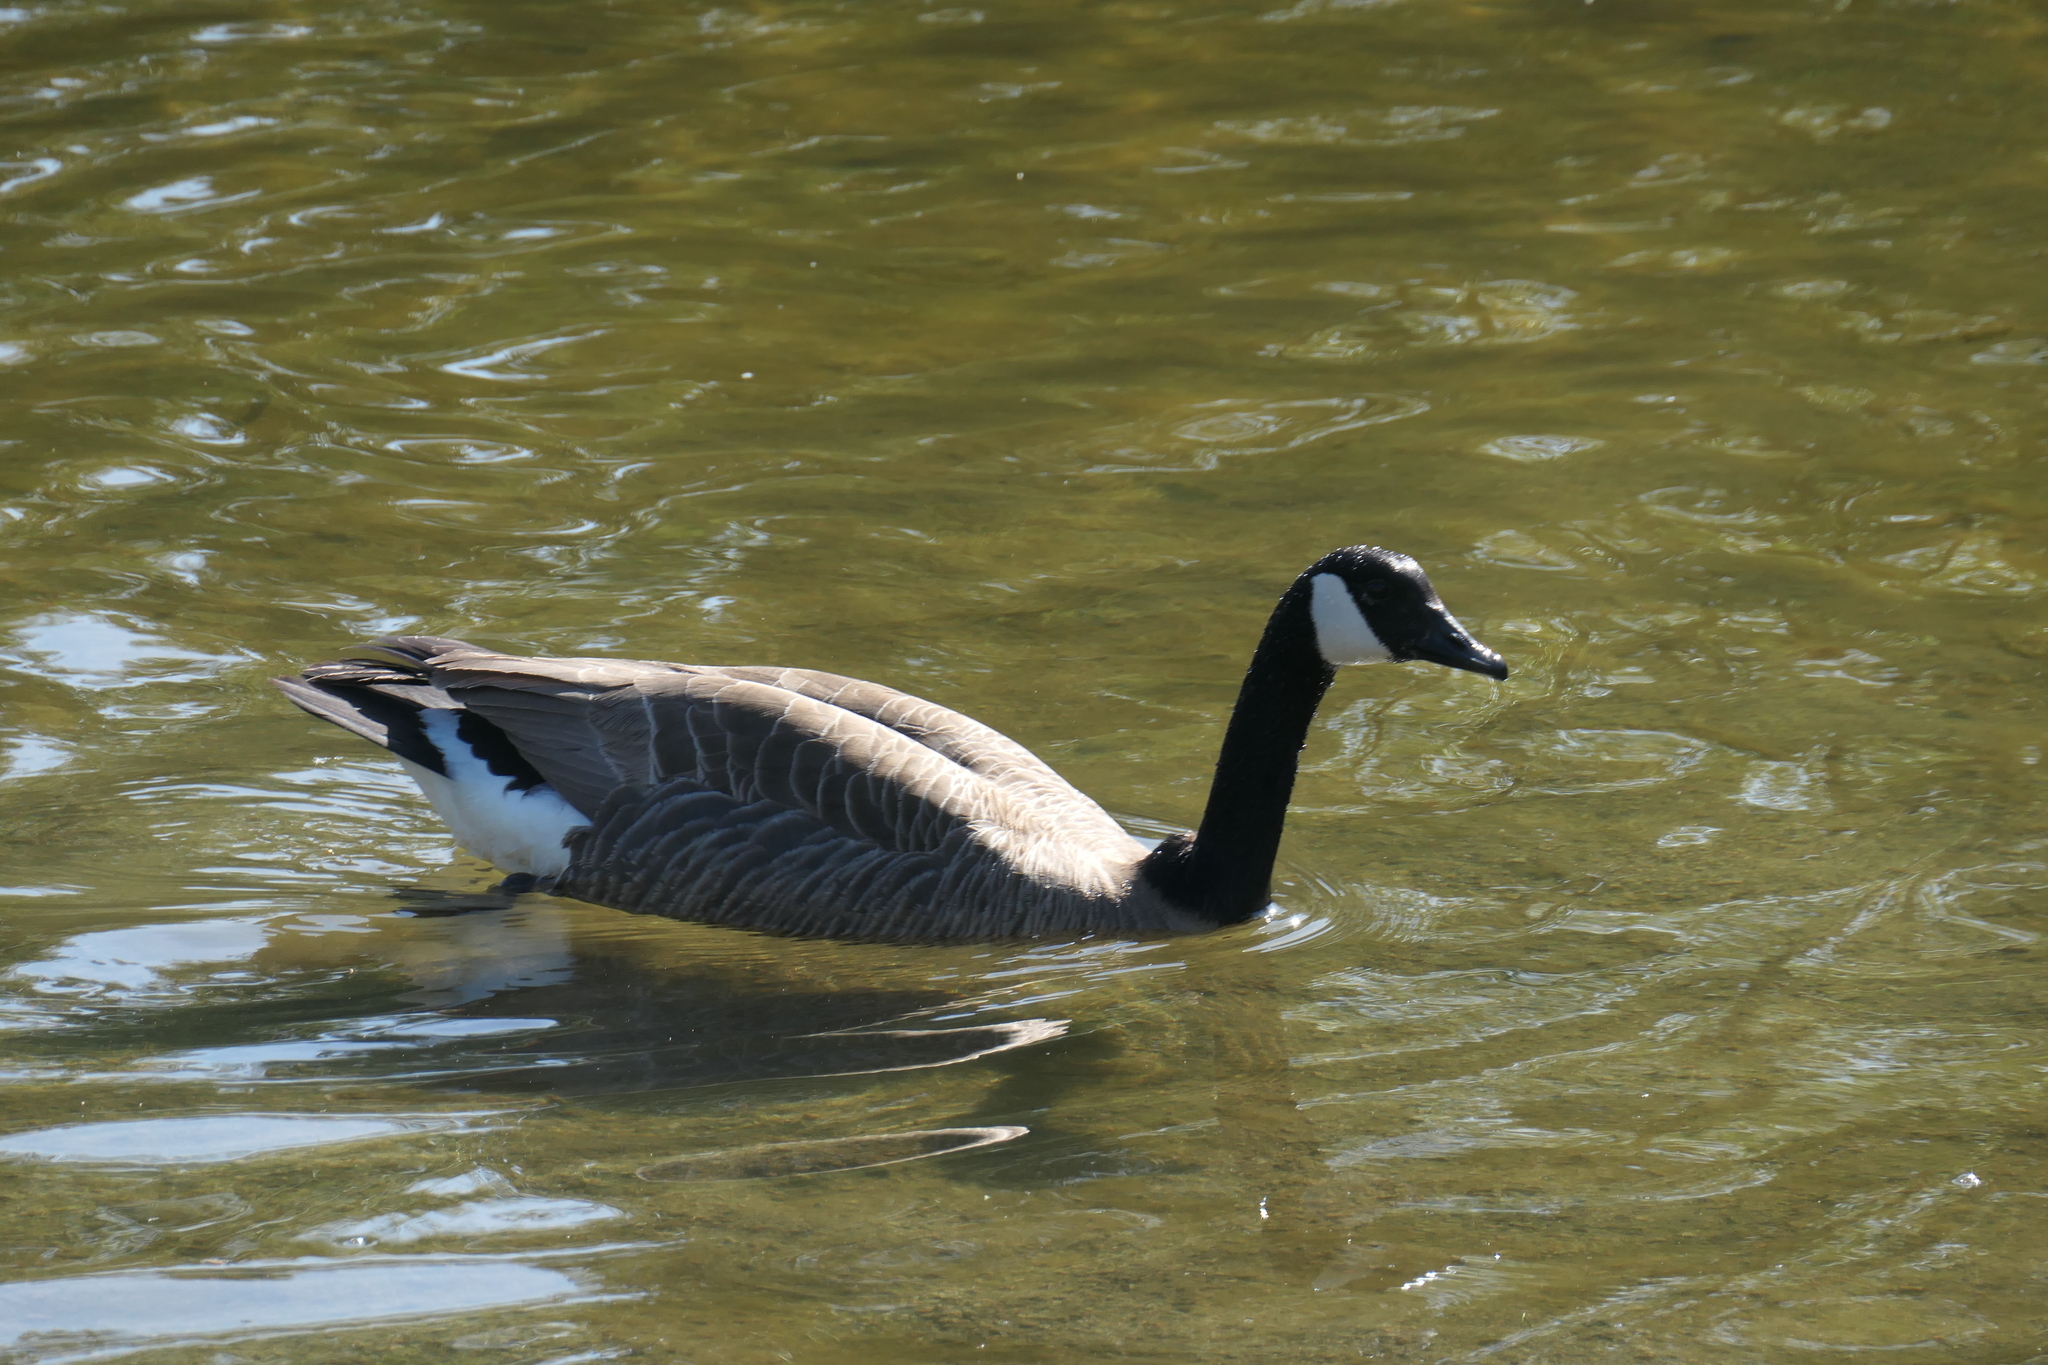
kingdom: Animalia
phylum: Chordata
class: Aves
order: Anseriformes
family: Anatidae
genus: Branta
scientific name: Branta canadensis
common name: Canada goose
